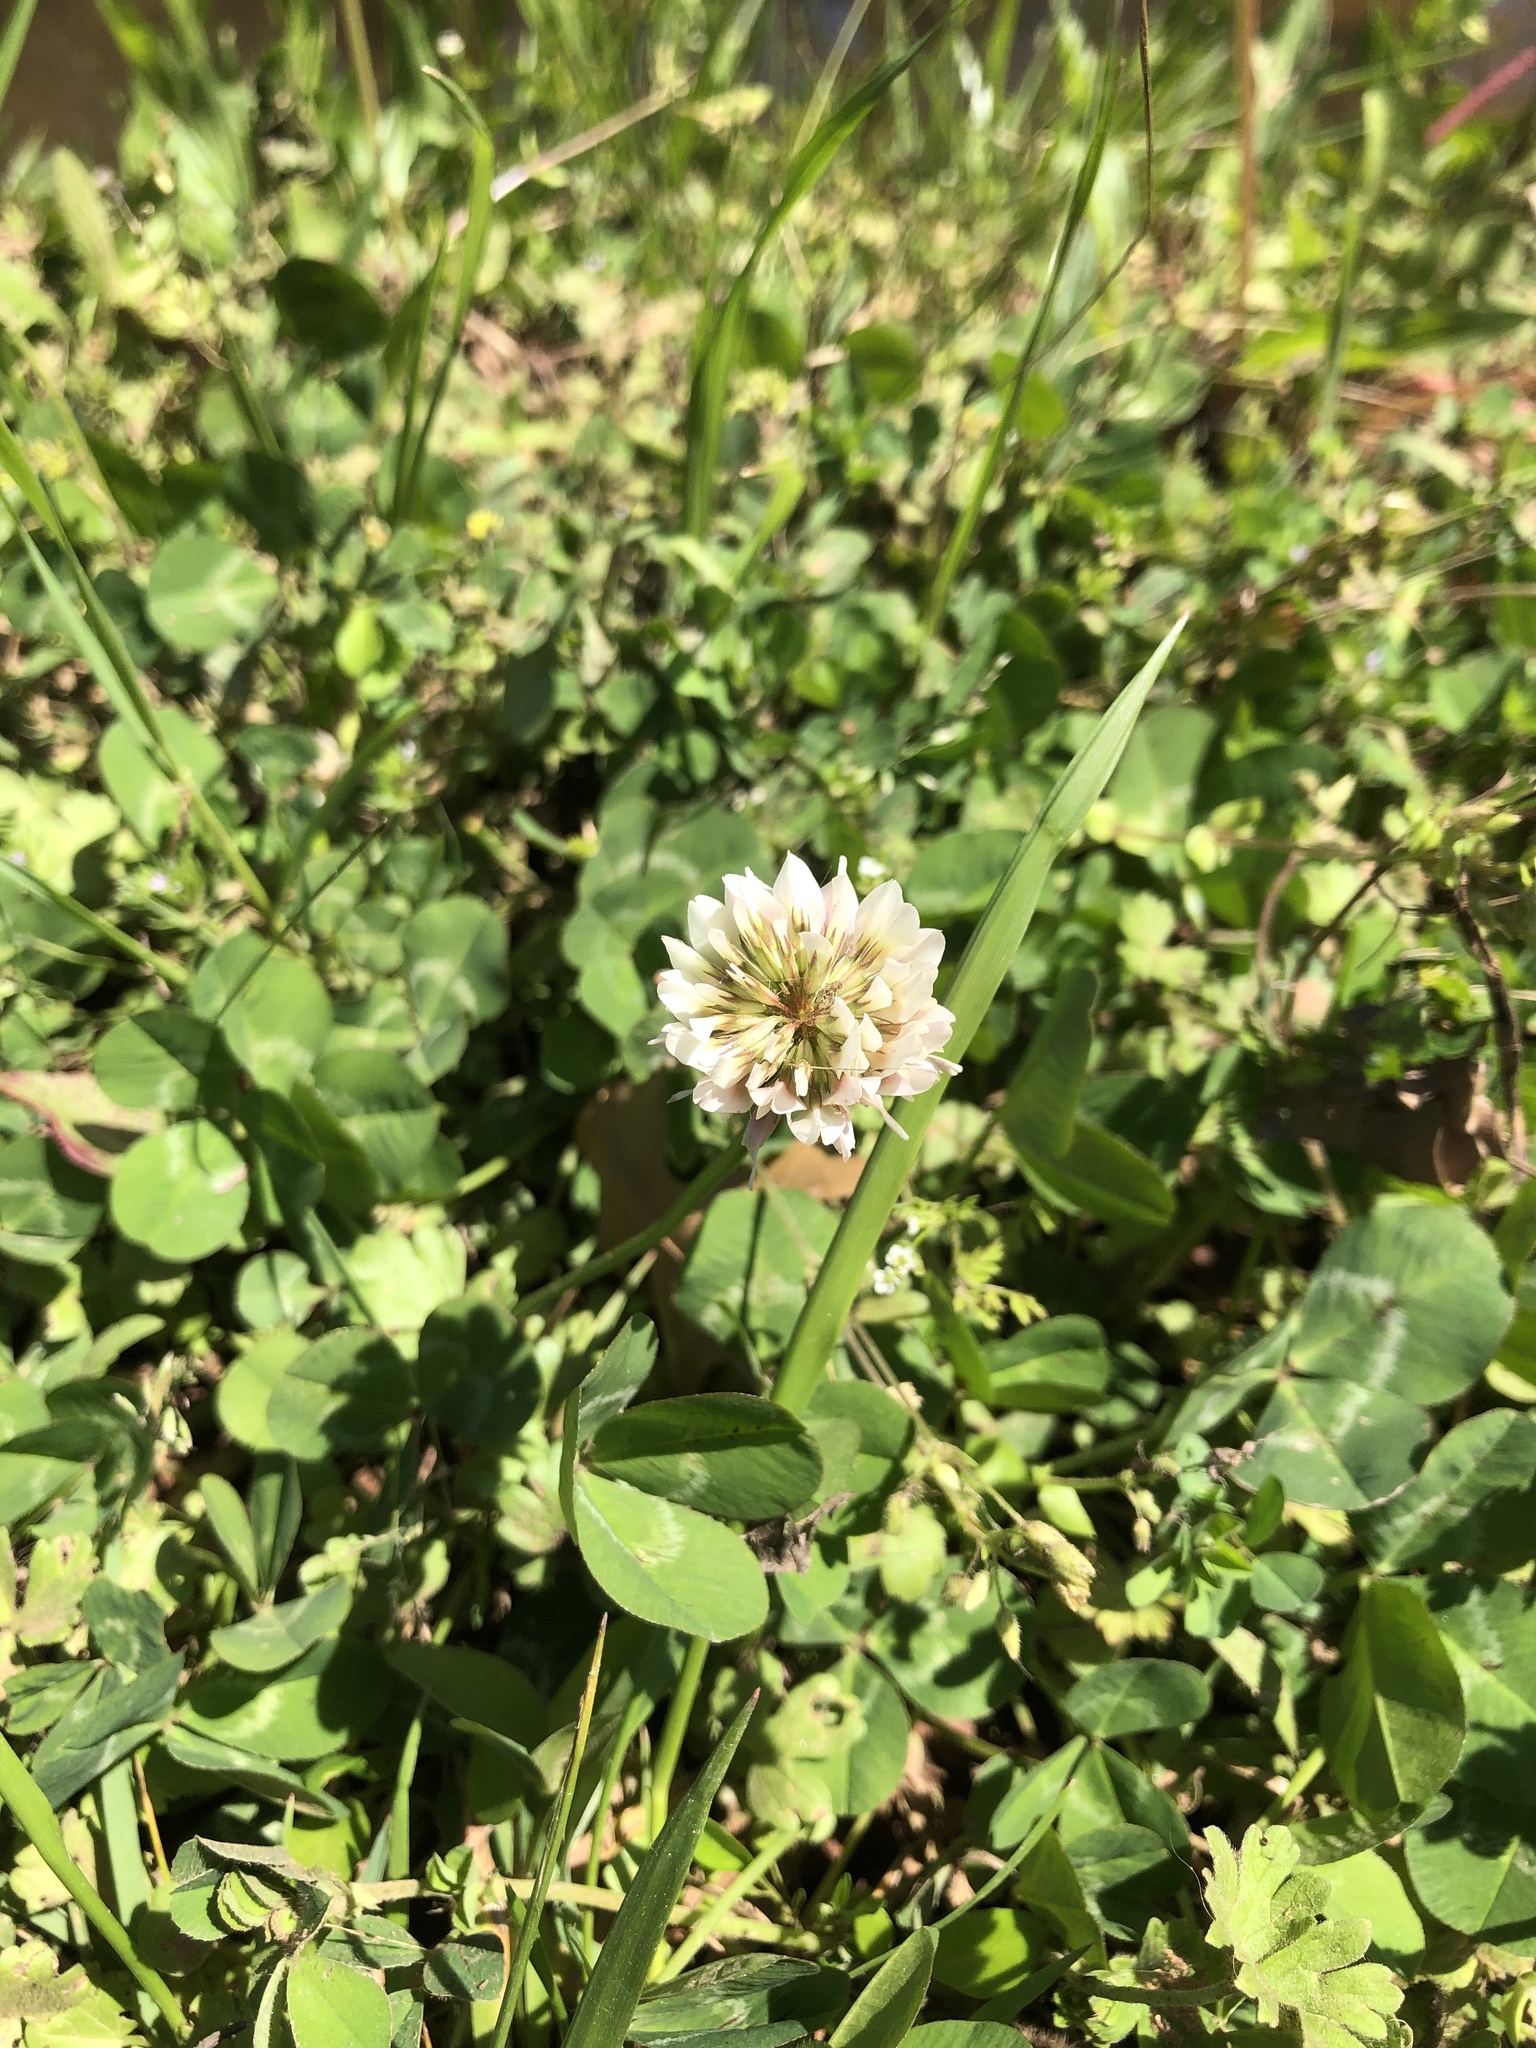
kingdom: Plantae
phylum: Tracheophyta
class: Magnoliopsida
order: Fabales
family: Fabaceae
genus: Trifolium
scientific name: Trifolium repens
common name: White clover
